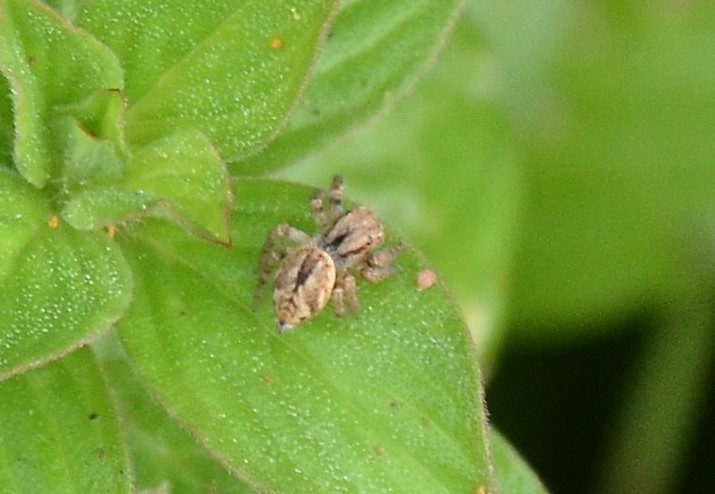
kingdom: Animalia
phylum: Arthropoda
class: Arachnida
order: Araneae
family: Salticidae
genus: Carrhotus
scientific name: Carrhotus viduus
